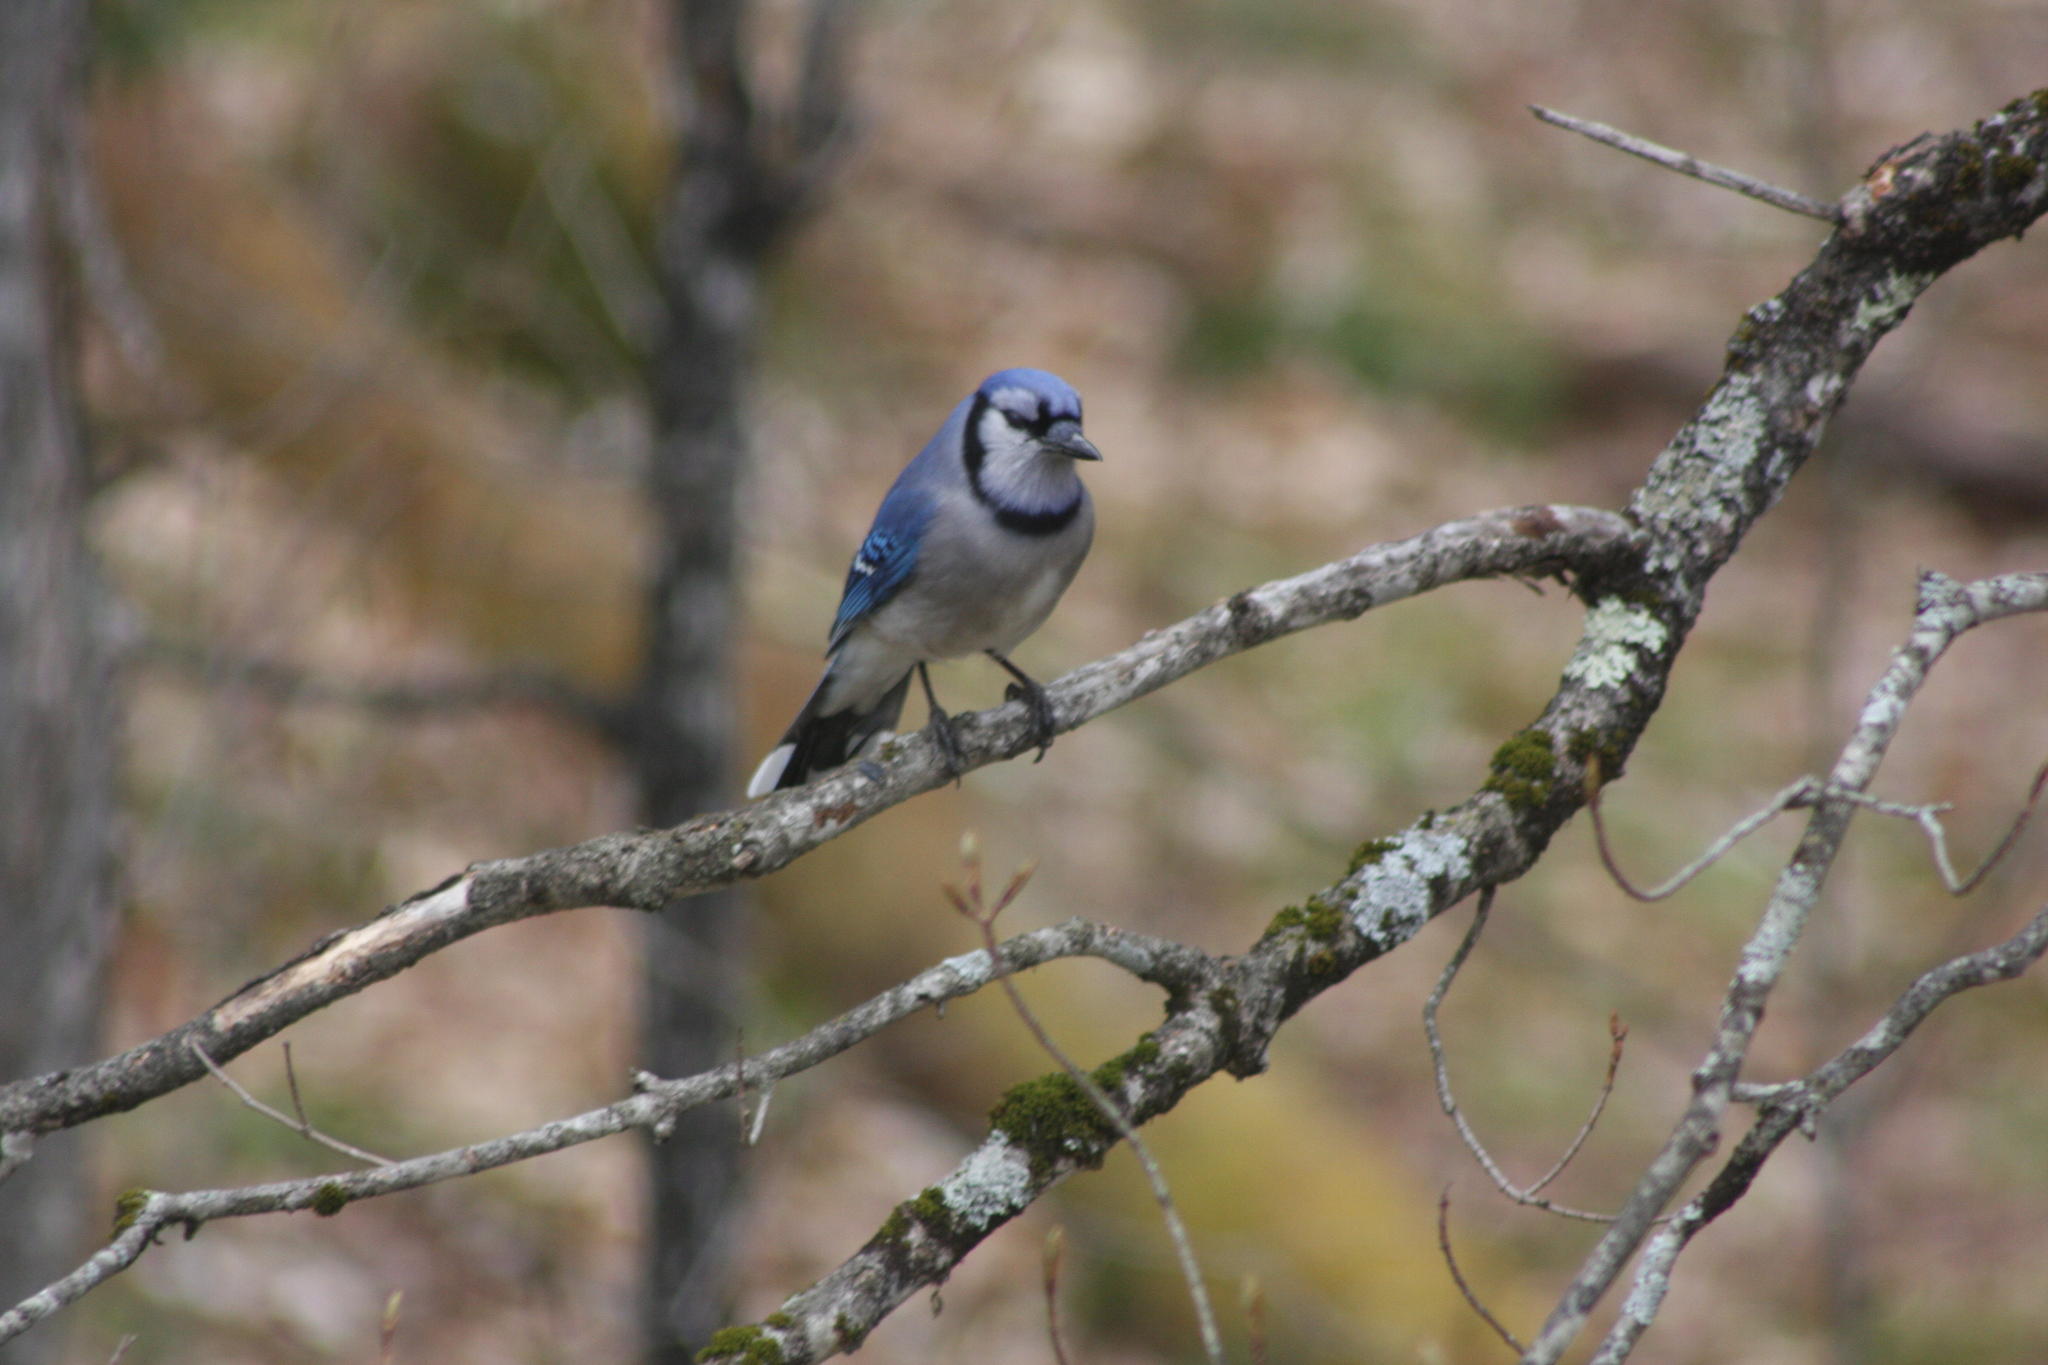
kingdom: Animalia
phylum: Chordata
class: Aves
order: Passeriformes
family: Corvidae
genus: Cyanocitta
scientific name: Cyanocitta cristata
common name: Blue jay
